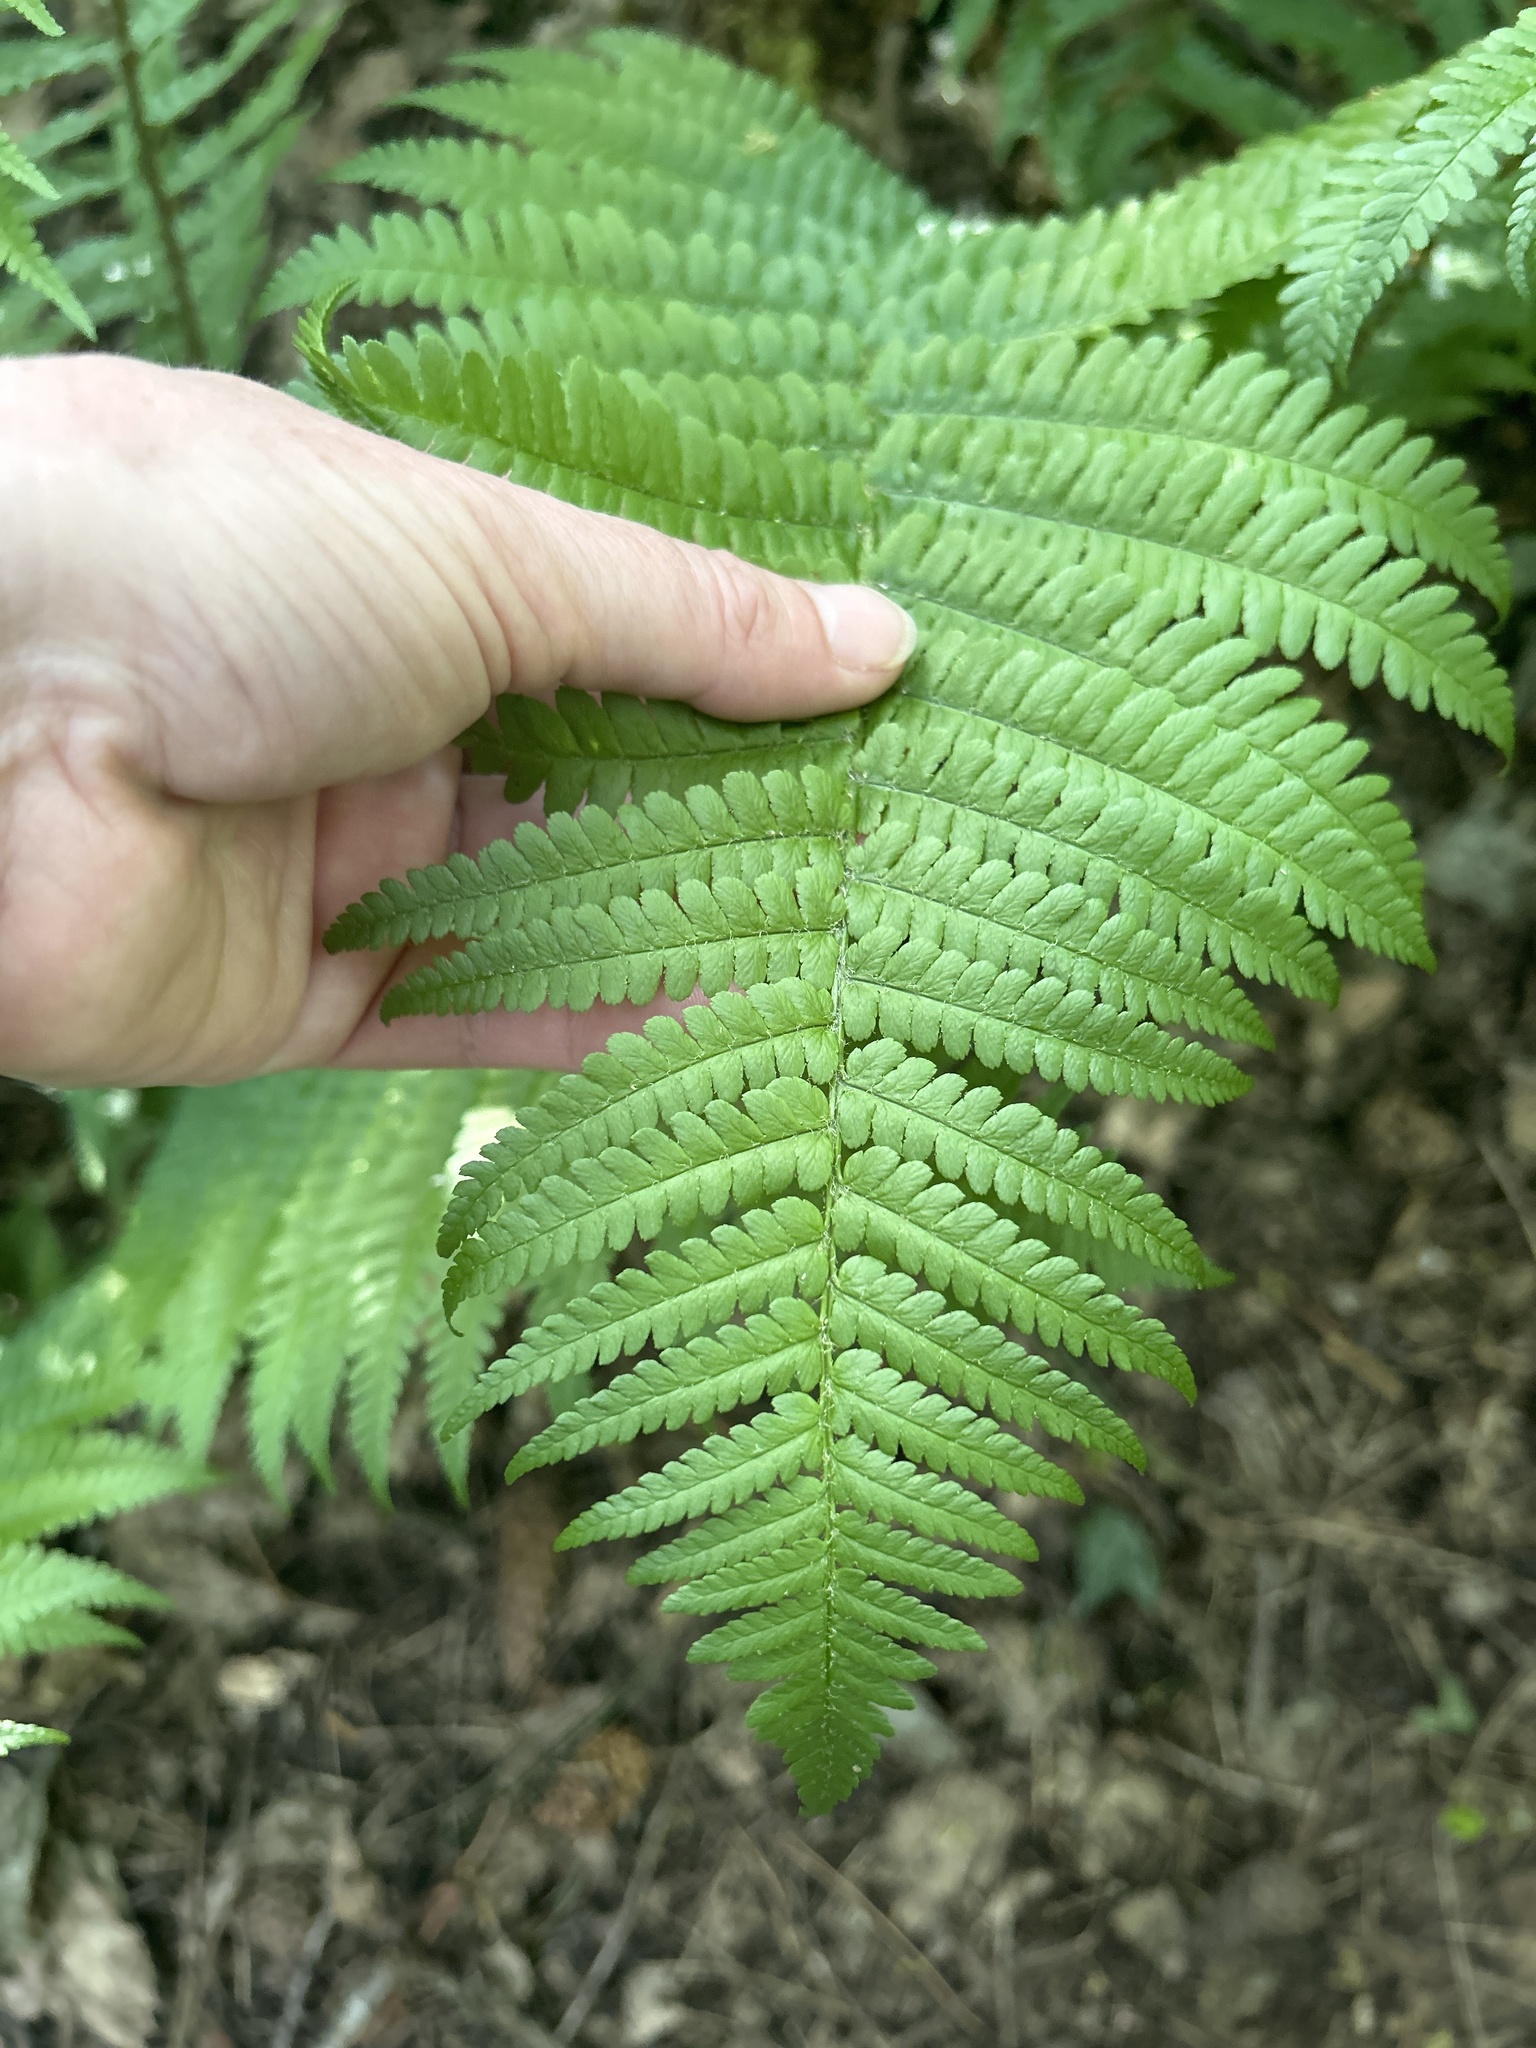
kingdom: Plantae
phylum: Tracheophyta
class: Polypodiopsida
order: Polypodiales
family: Dryopteridaceae
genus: Dryopteris
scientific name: Dryopteris filix-mas
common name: Male fern
